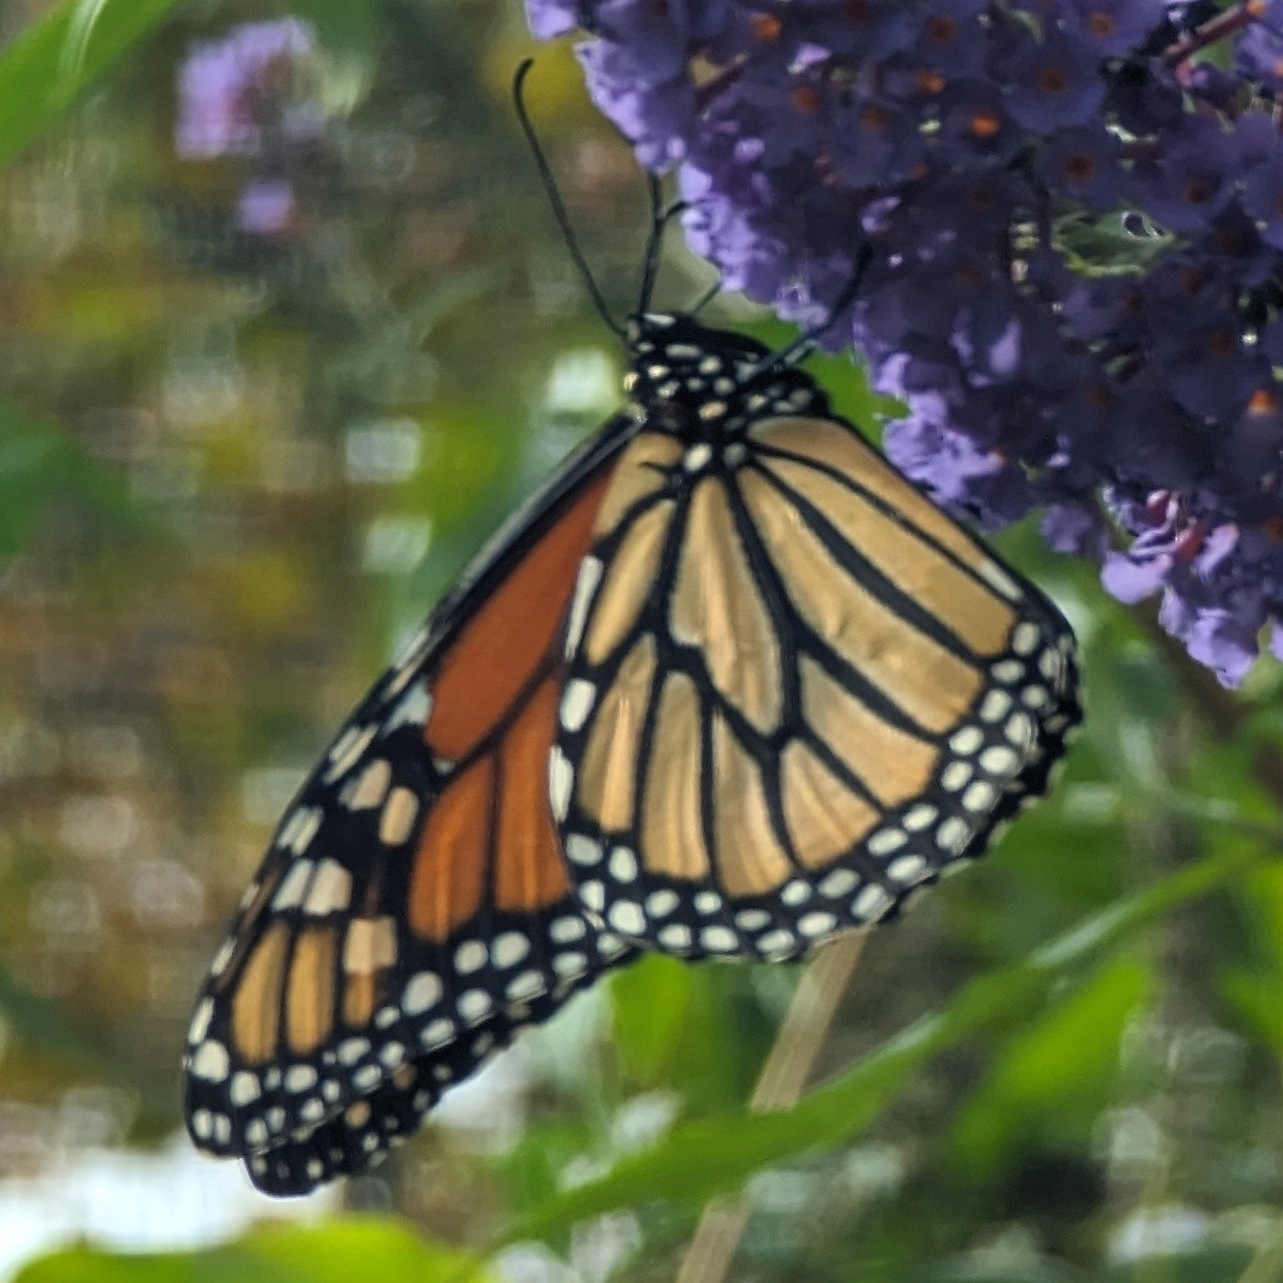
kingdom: Animalia
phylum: Arthropoda
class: Insecta
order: Lepidoptera
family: Nymphalidae
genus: Danaus
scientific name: Danaus plexippus
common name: Monarch
